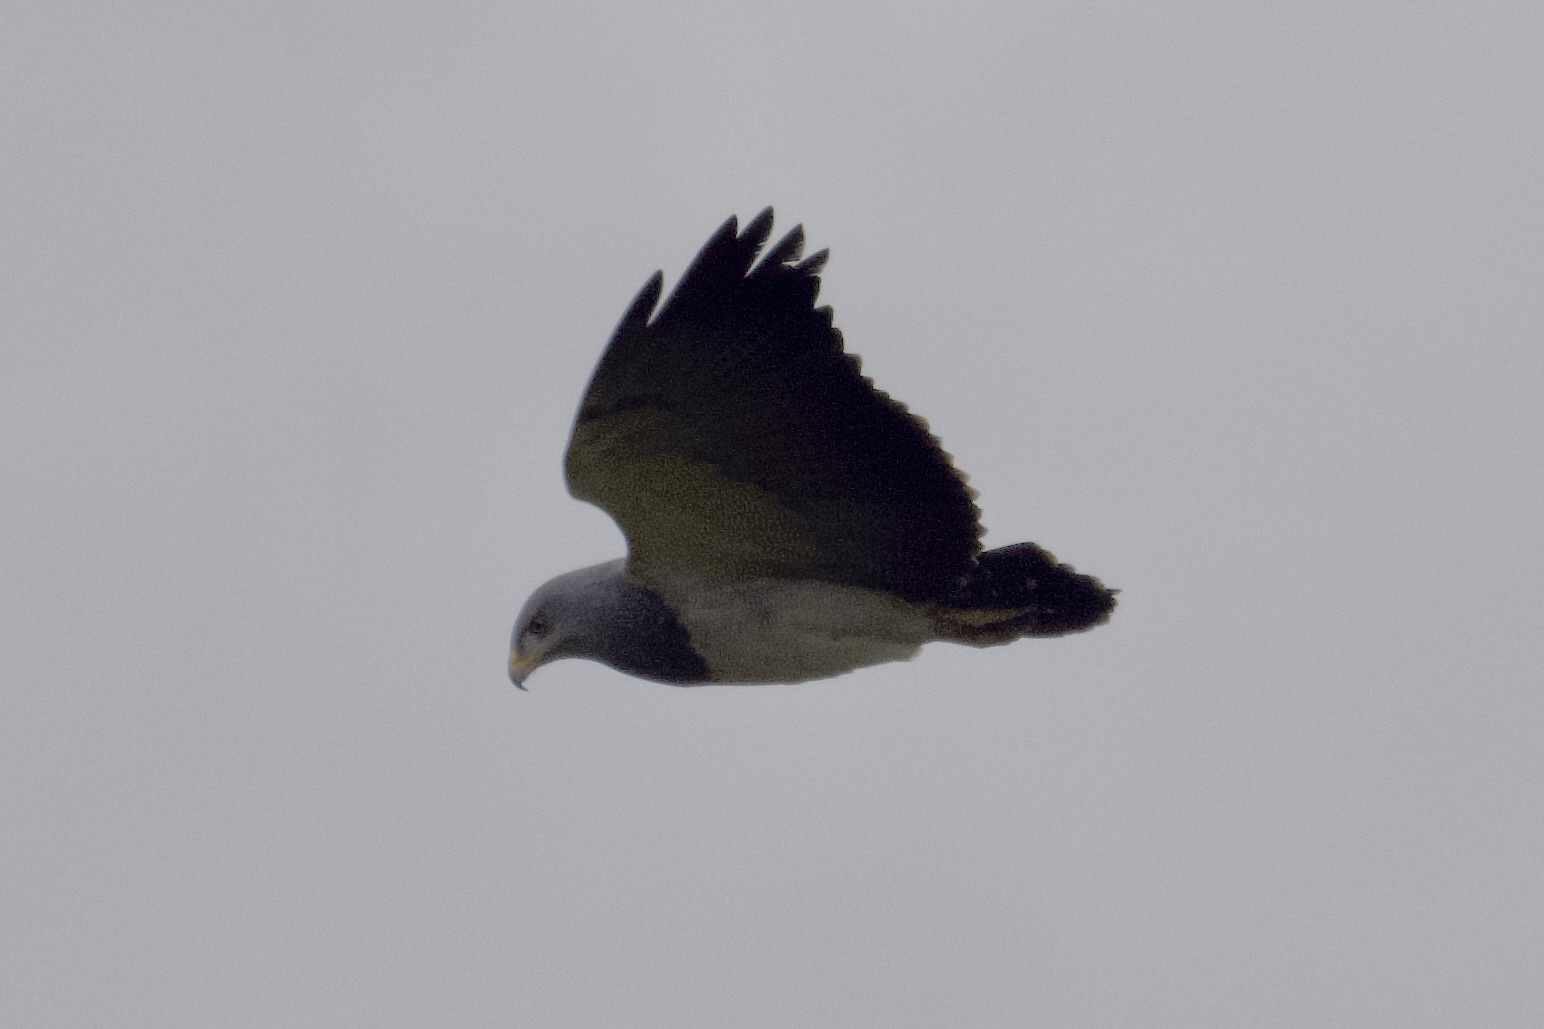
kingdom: Animalia
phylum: Chordata
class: Aves
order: Accipitriformes
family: Accipitridae
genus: Geranoaetus
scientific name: Geranoaetus melanoleucus
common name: Black-chested buzzard-eagle
